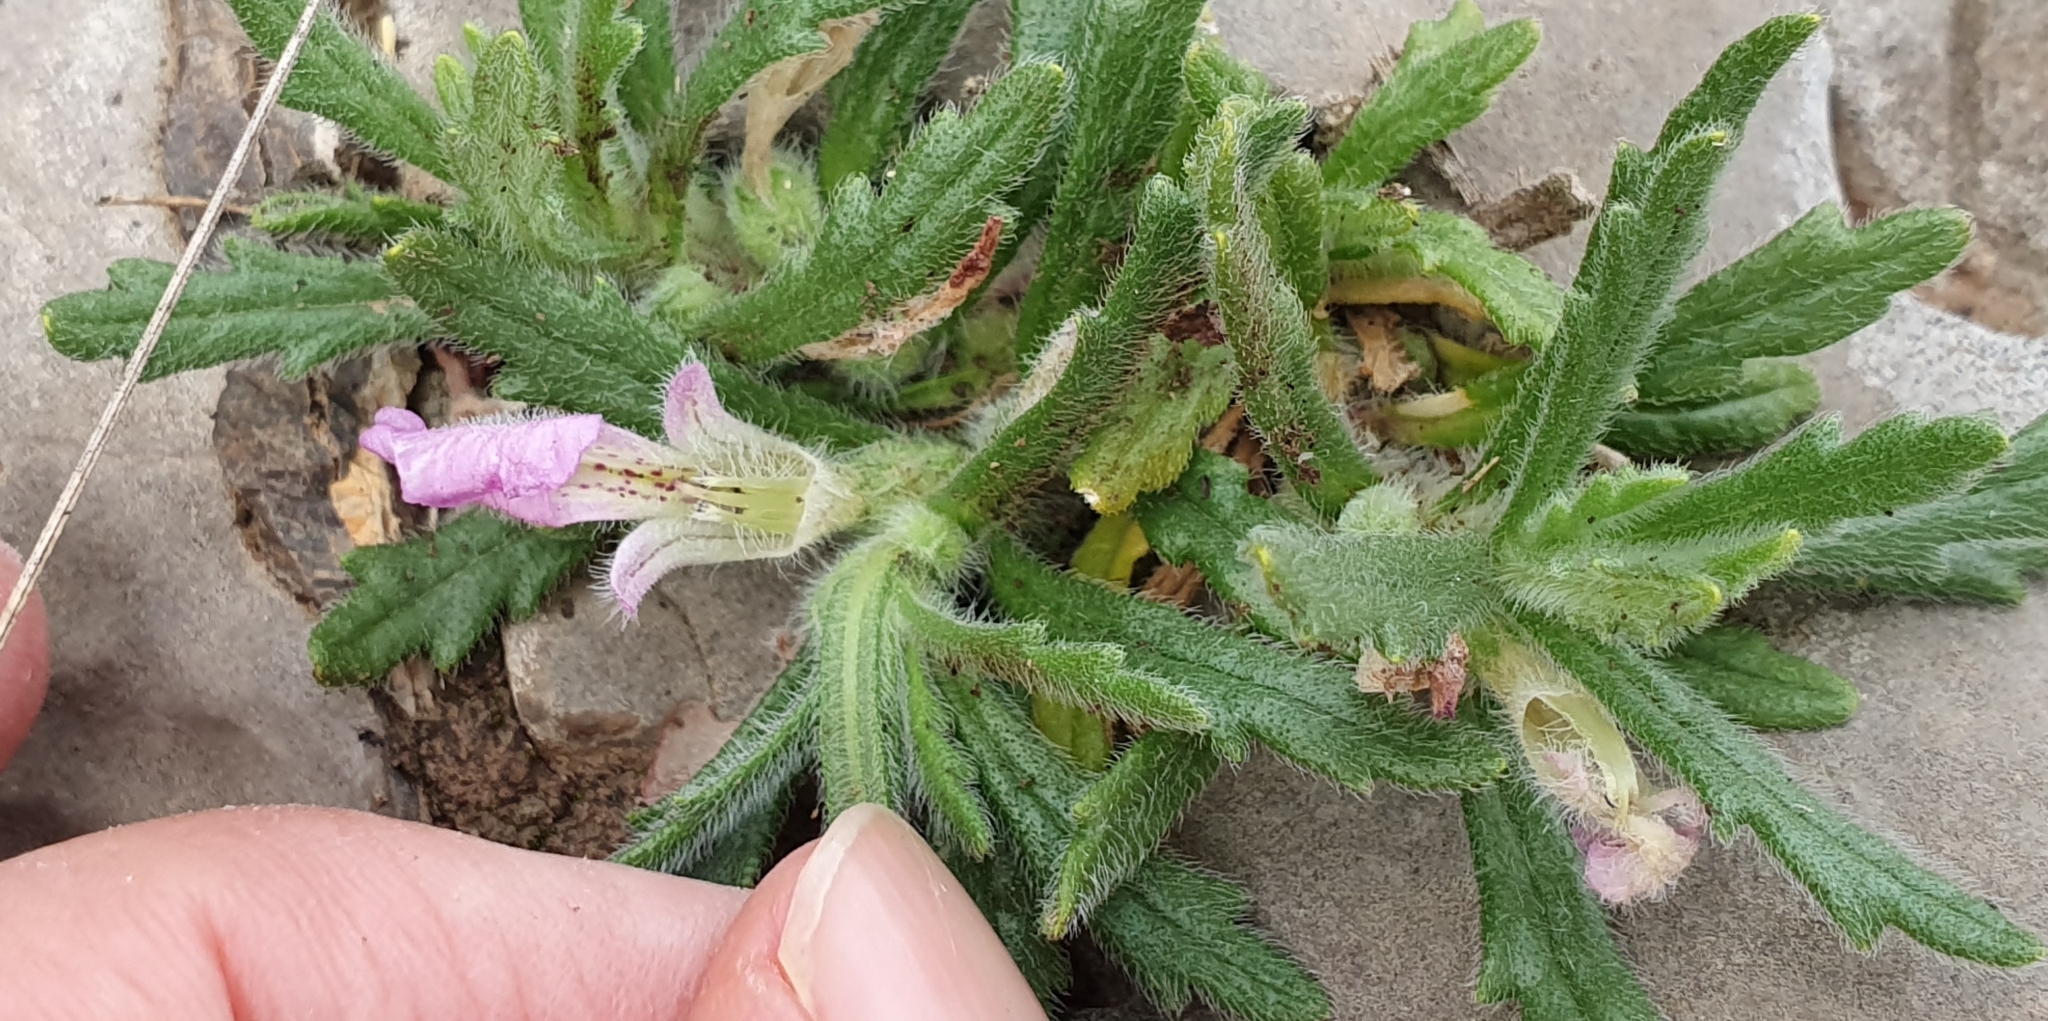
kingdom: Plantae
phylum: Tracheophyta
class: Magnoliopsida
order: Lamiales
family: Lamiaceae
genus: Ajuga
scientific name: Ajuga iva
